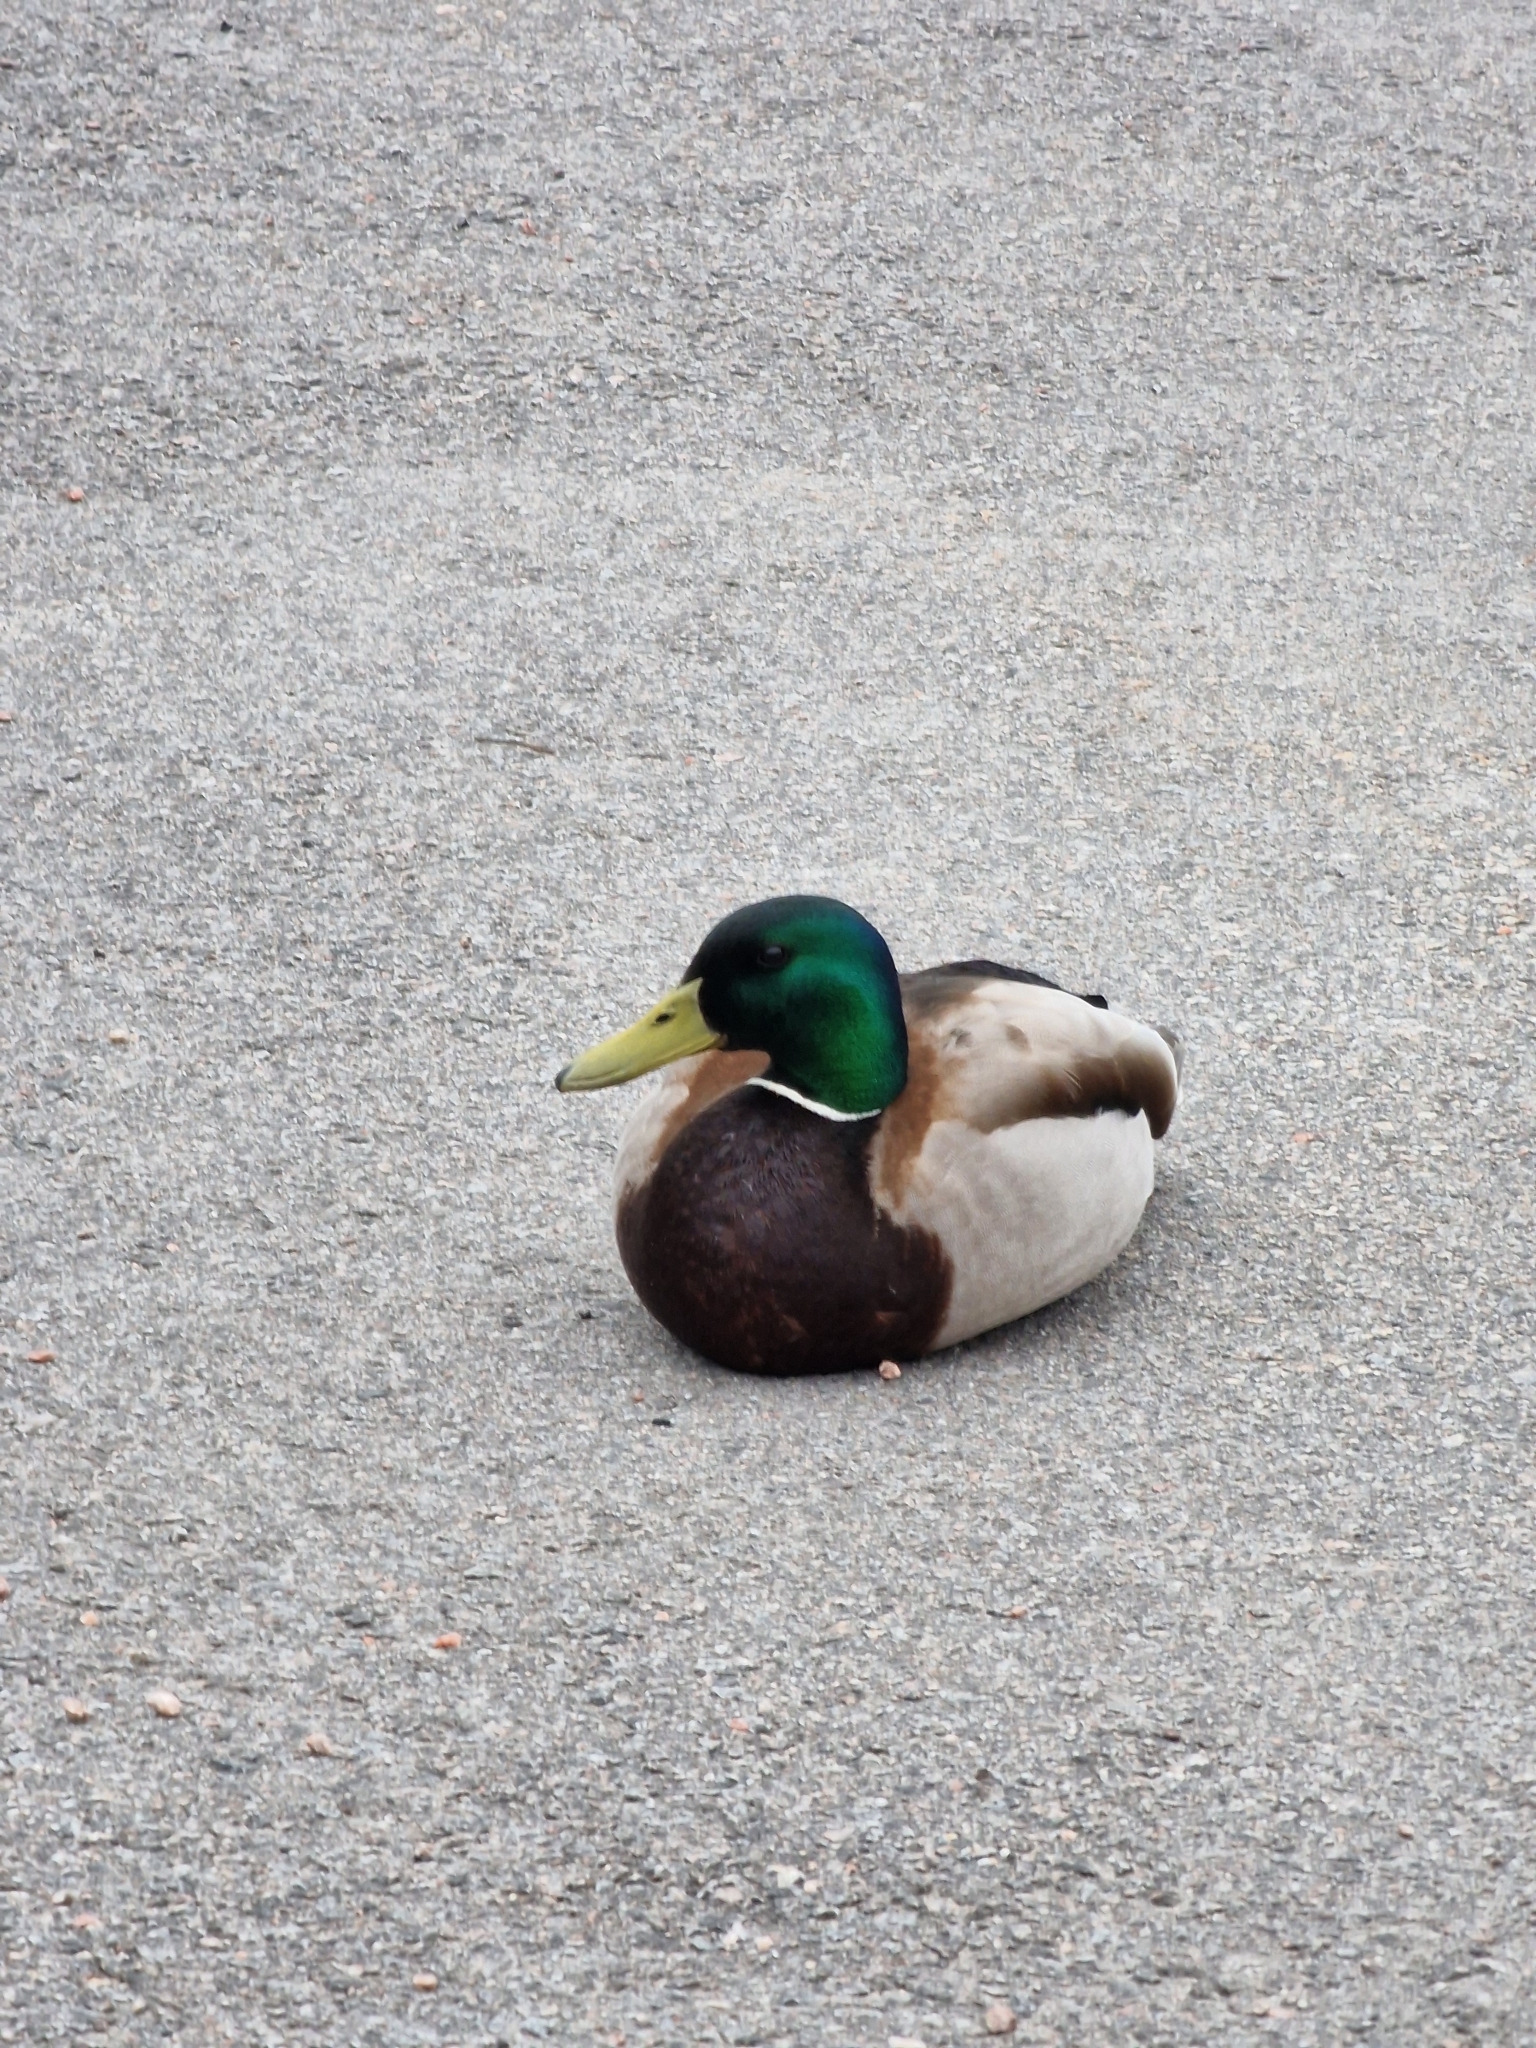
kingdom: Animalia
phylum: Chordata
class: Aves
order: Anseriformes
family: Anatidae
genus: Anas
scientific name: Anas platyrhynchos
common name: Mallard
